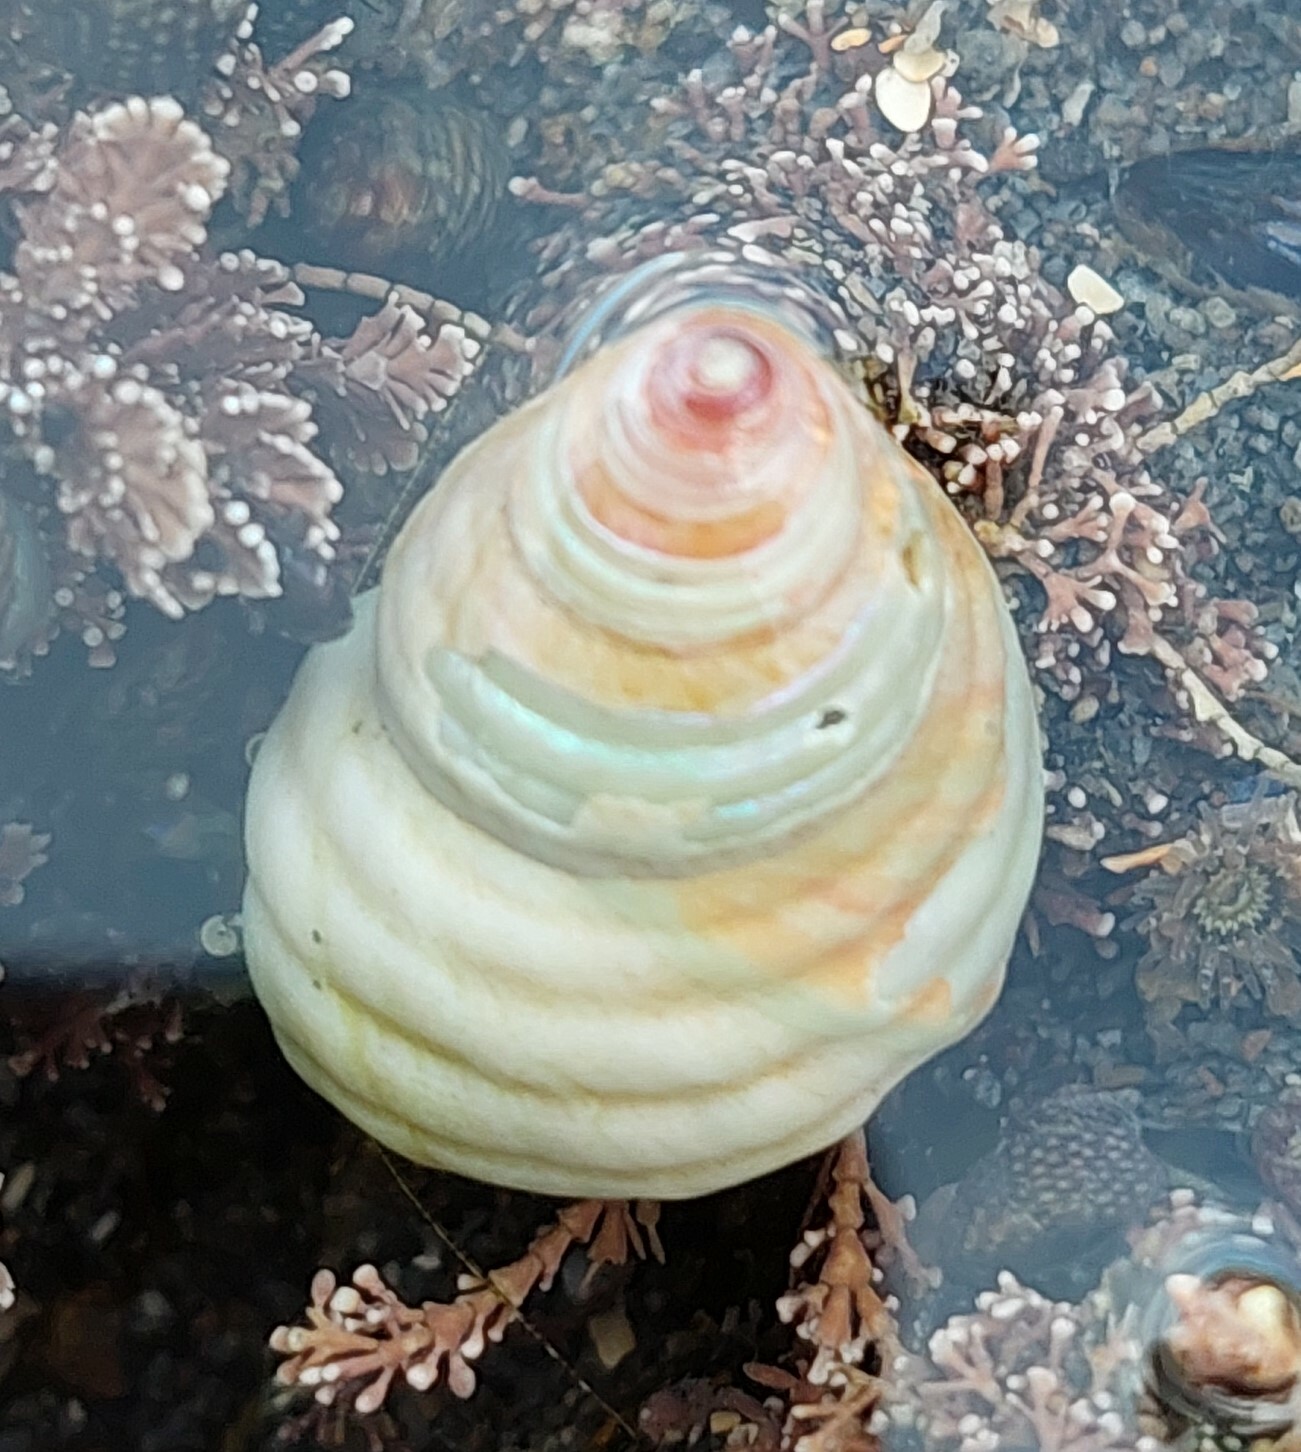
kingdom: Animalia
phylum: Mollusca
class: Gastropoda
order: Trochida
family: Trochidae
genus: Micrelenchus
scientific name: Micrelenchus purpureus
